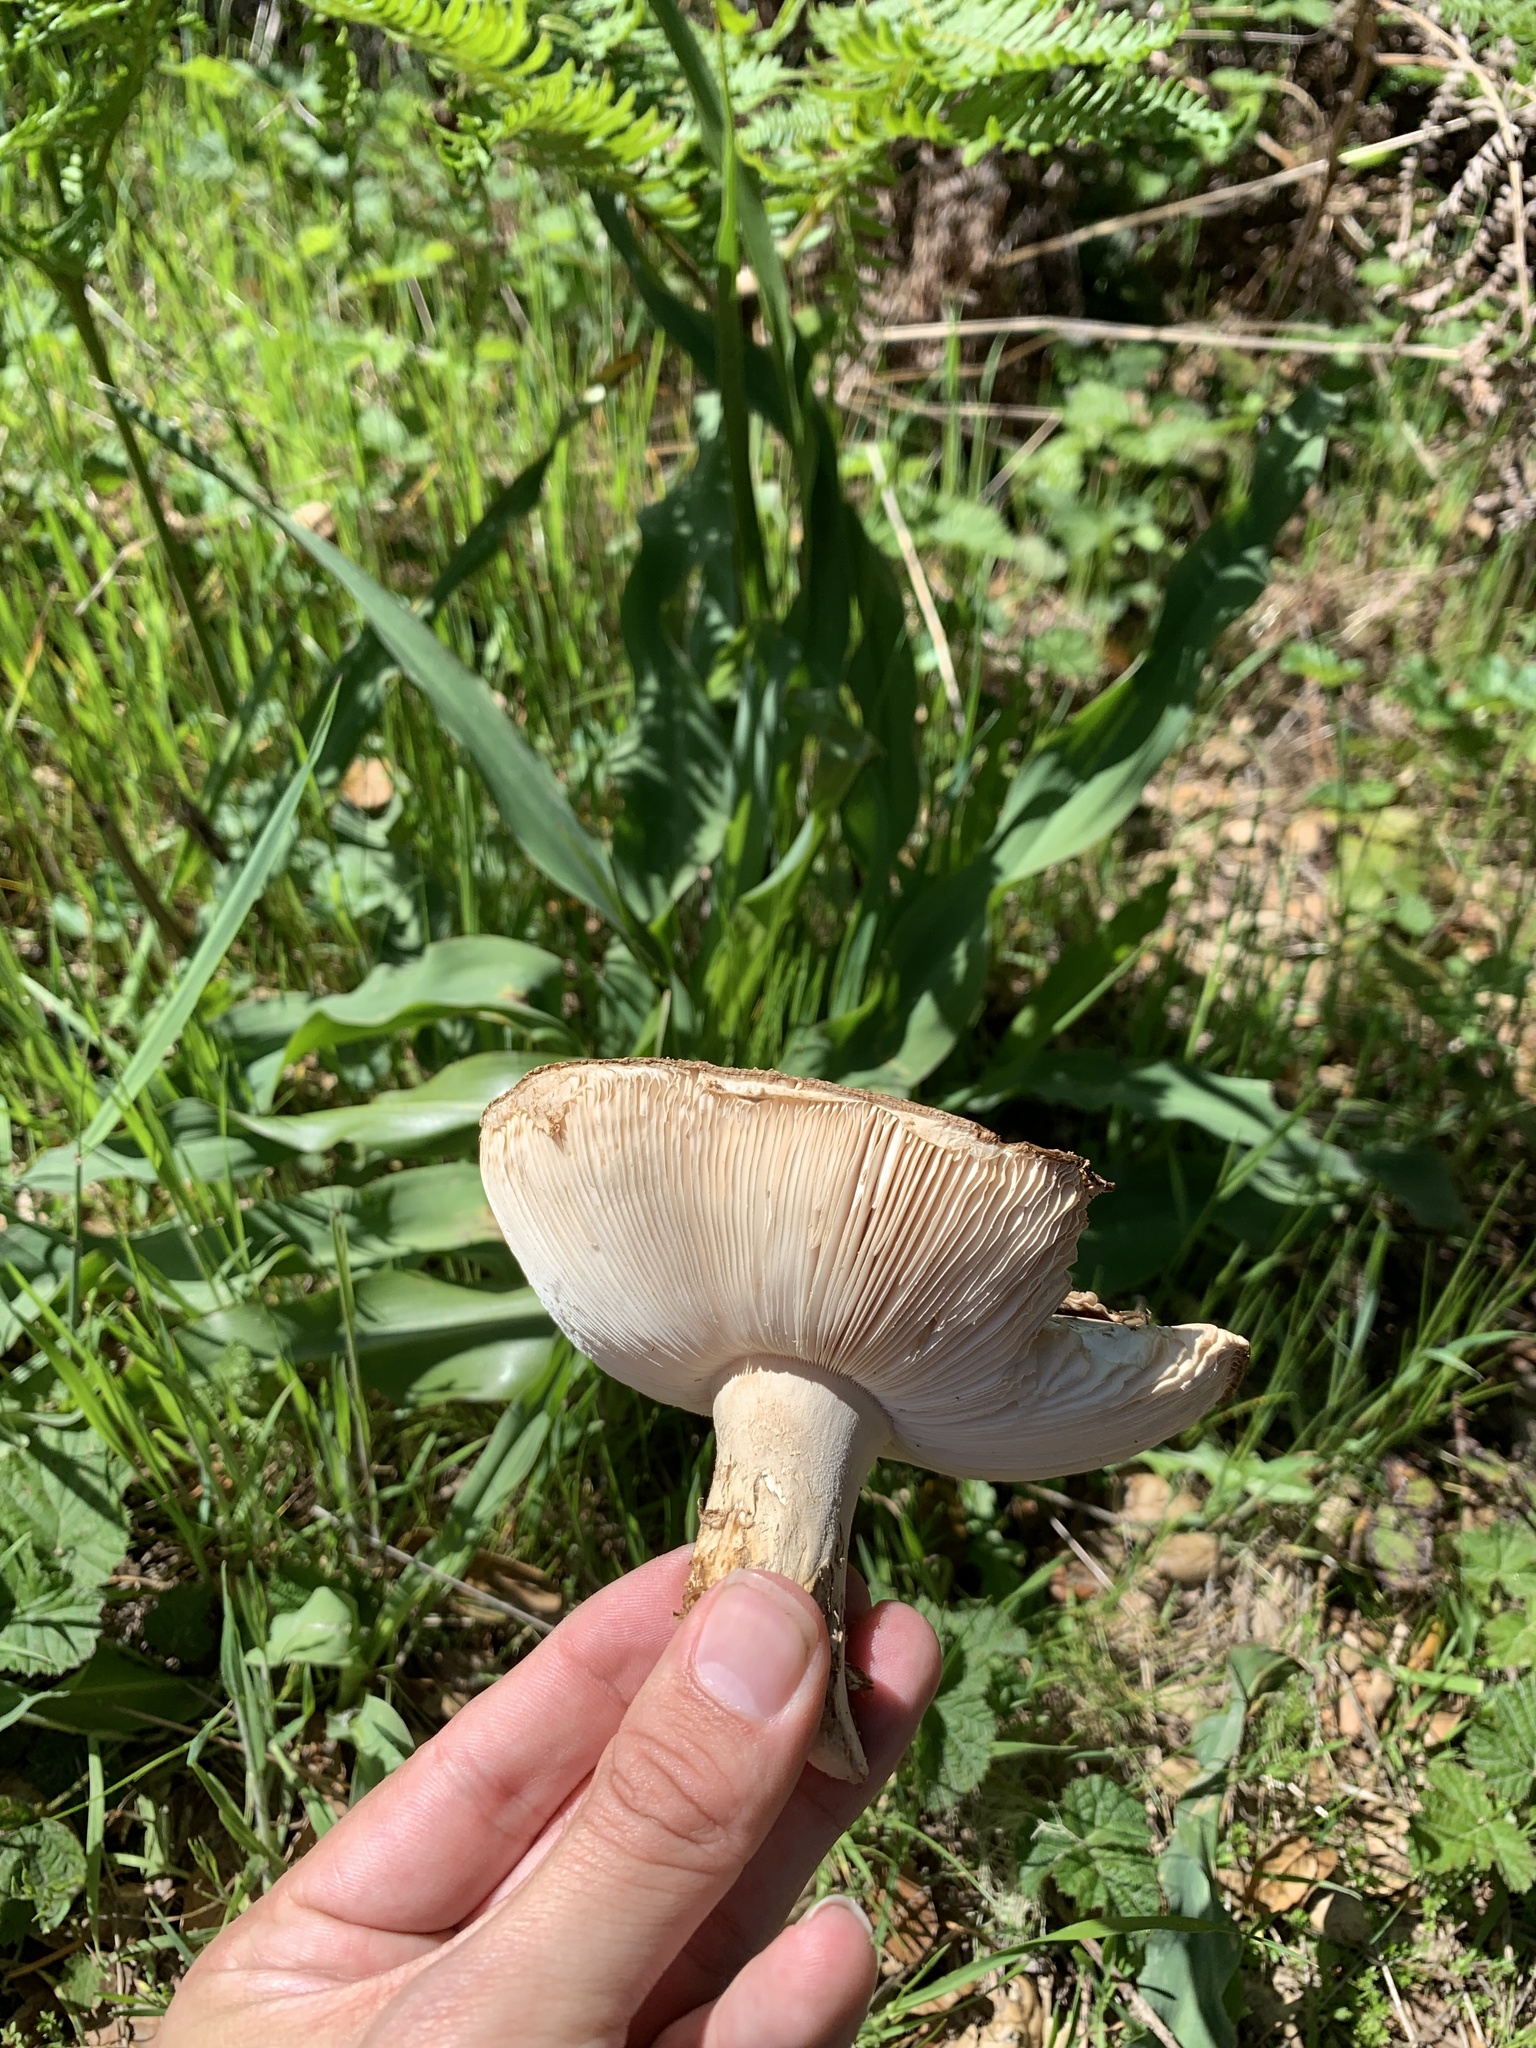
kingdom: Fungi
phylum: Basidiomycota
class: Agaricomycetes
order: Agaricales
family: Amanitaceae
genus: Amanita
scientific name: Amanita pantherina
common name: Panthercap
